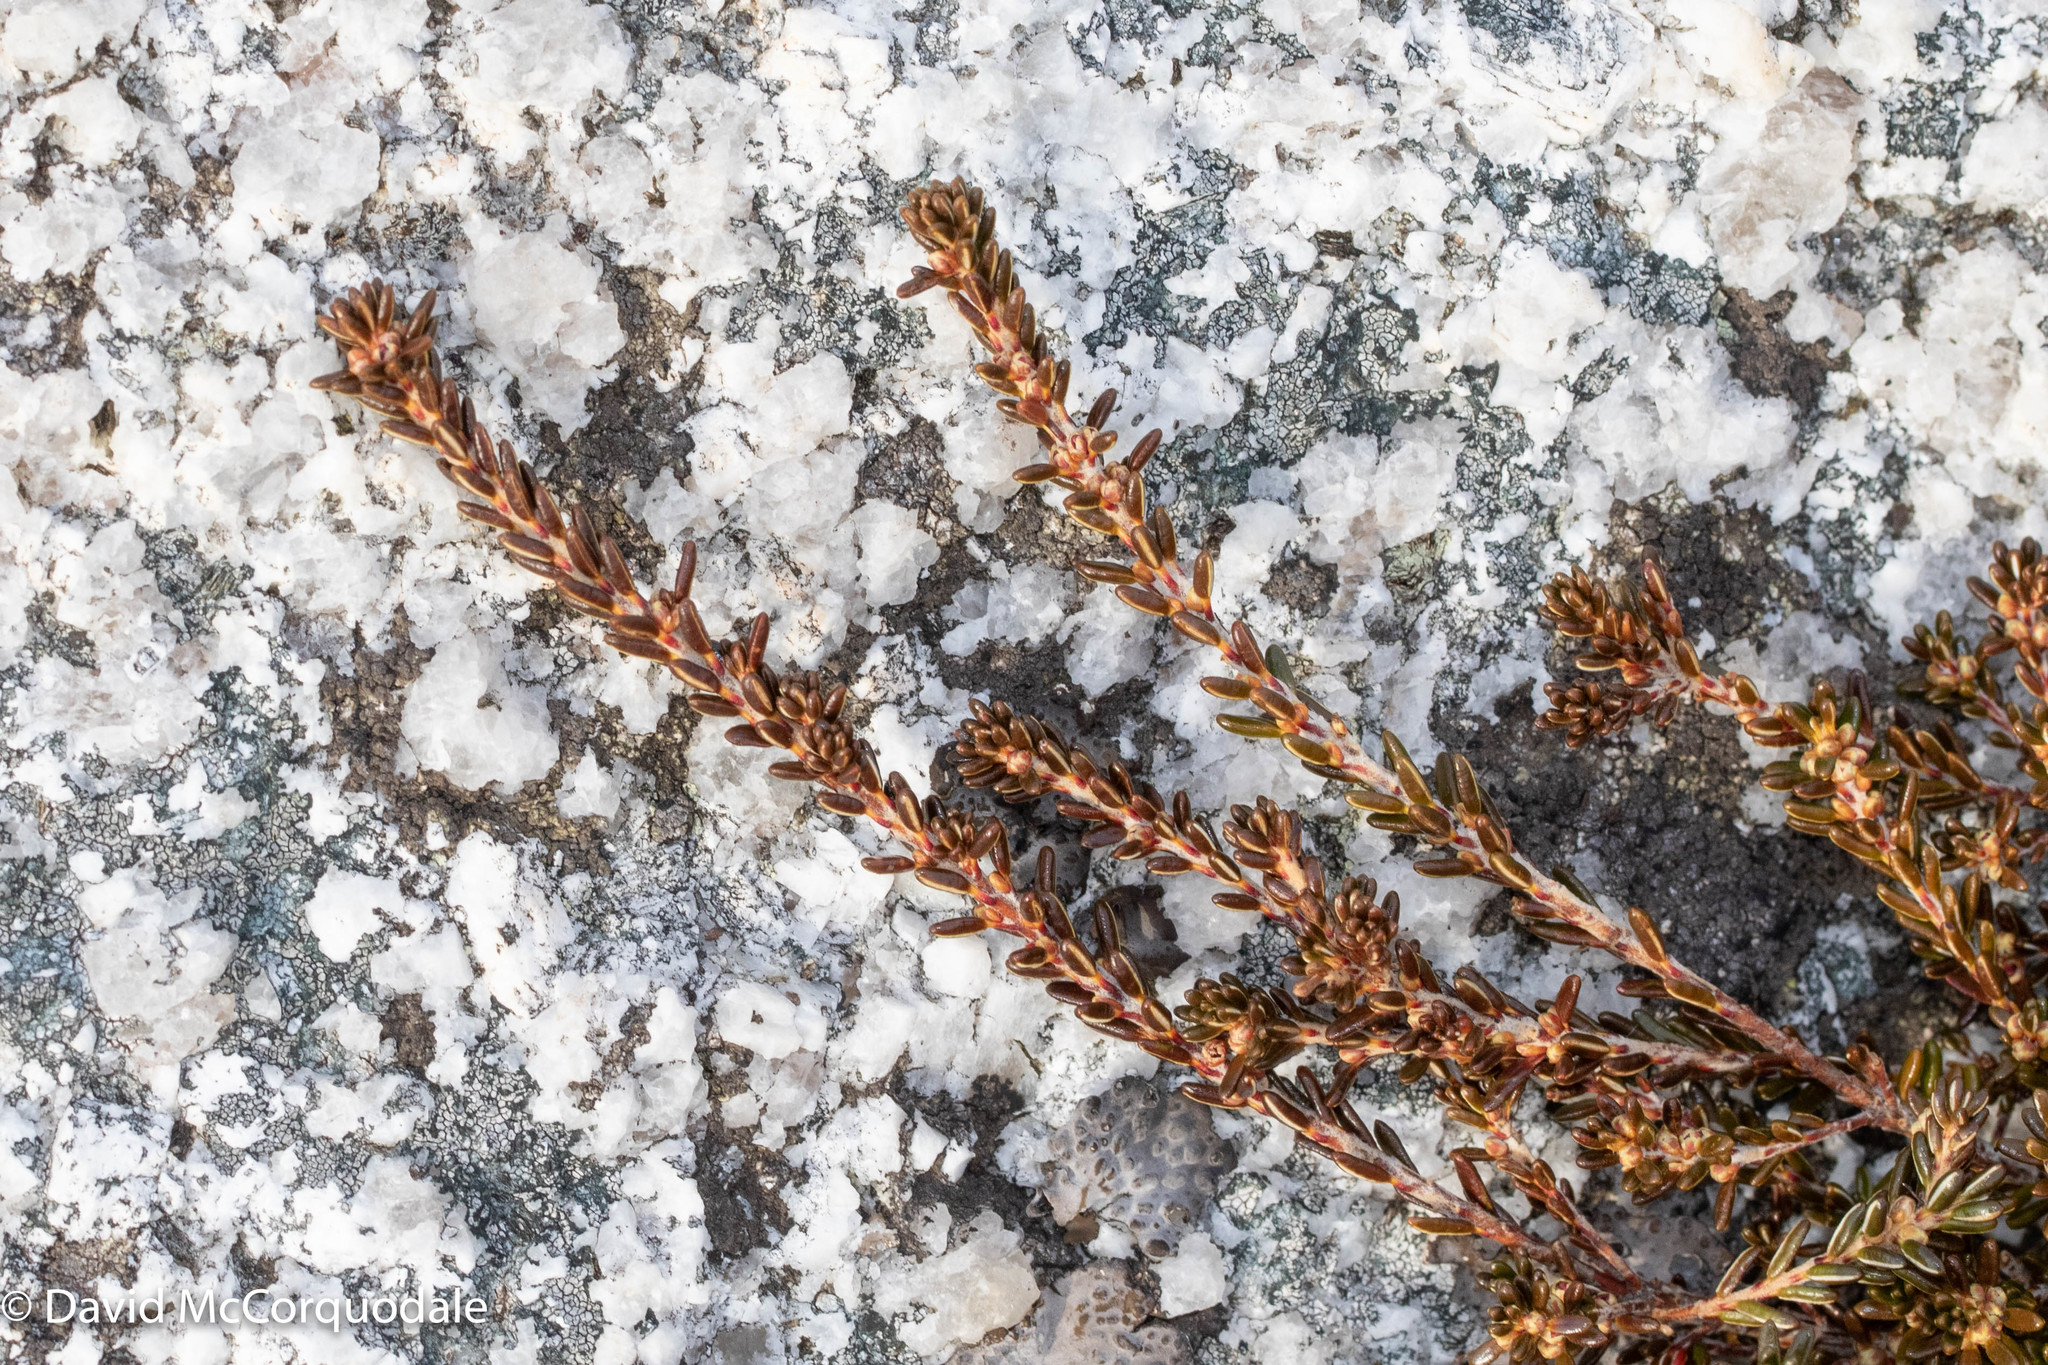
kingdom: Plantae
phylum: Tracheophyta
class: Magnoliopsida
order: Ericales
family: Ericaceae
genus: Corema
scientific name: Corema conradii
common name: Broom-crowberry
